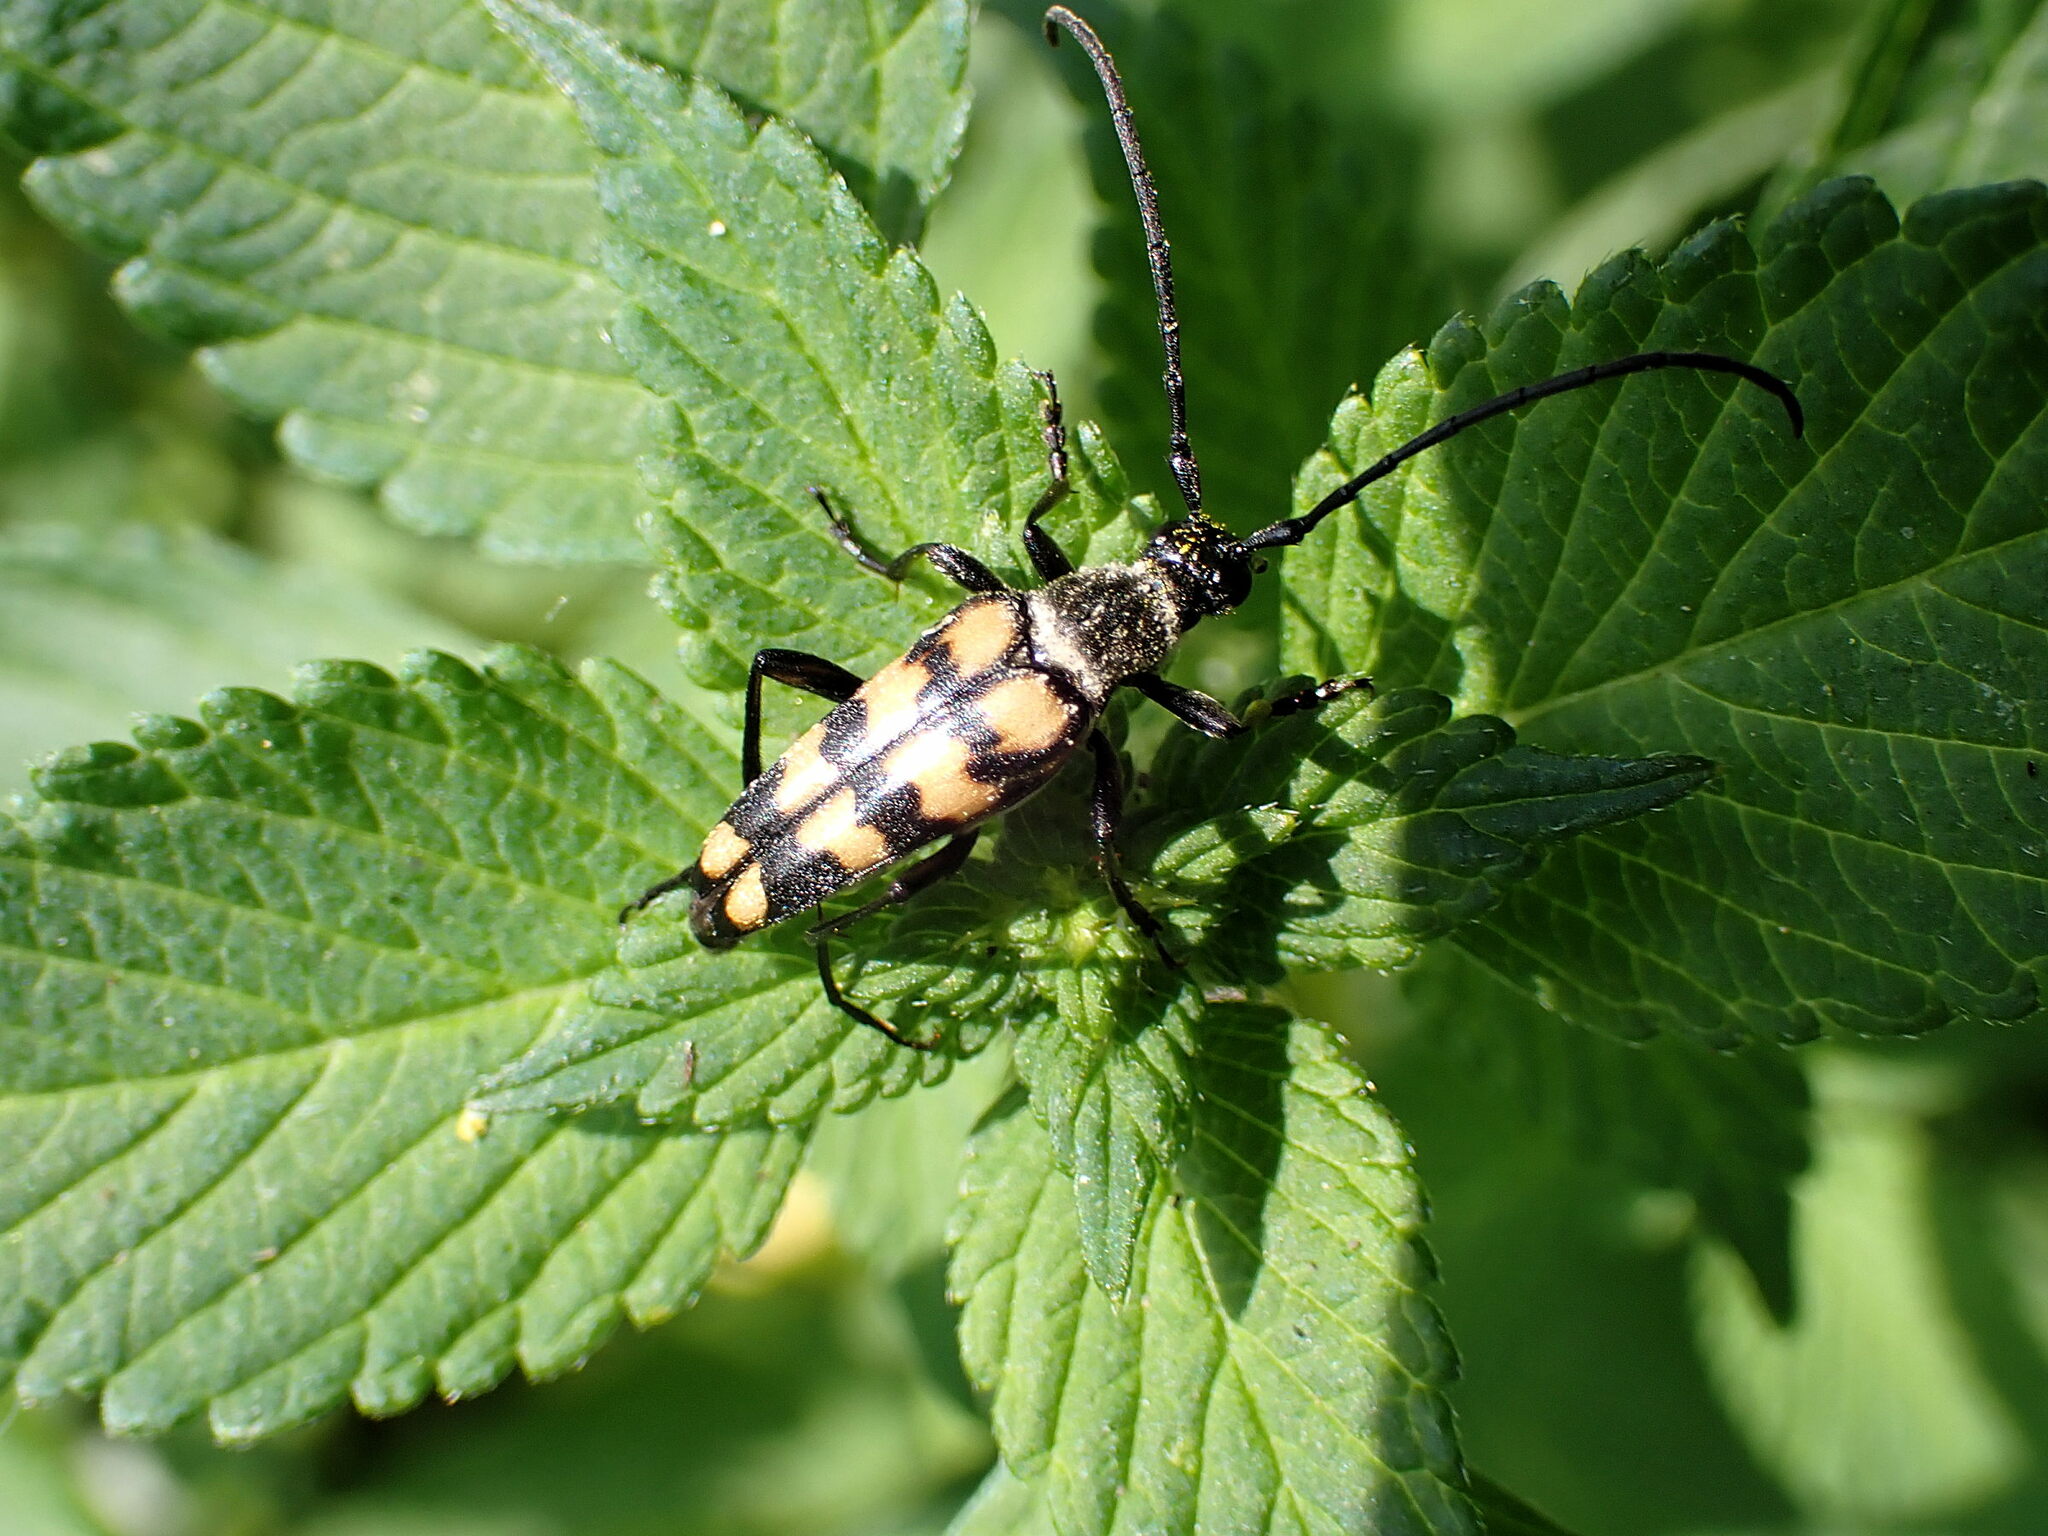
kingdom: Animalia
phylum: Arthropoda
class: Insecta
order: Coleoptera
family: Cerambycidae
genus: Leptura
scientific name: Leptura quadrifasciata
